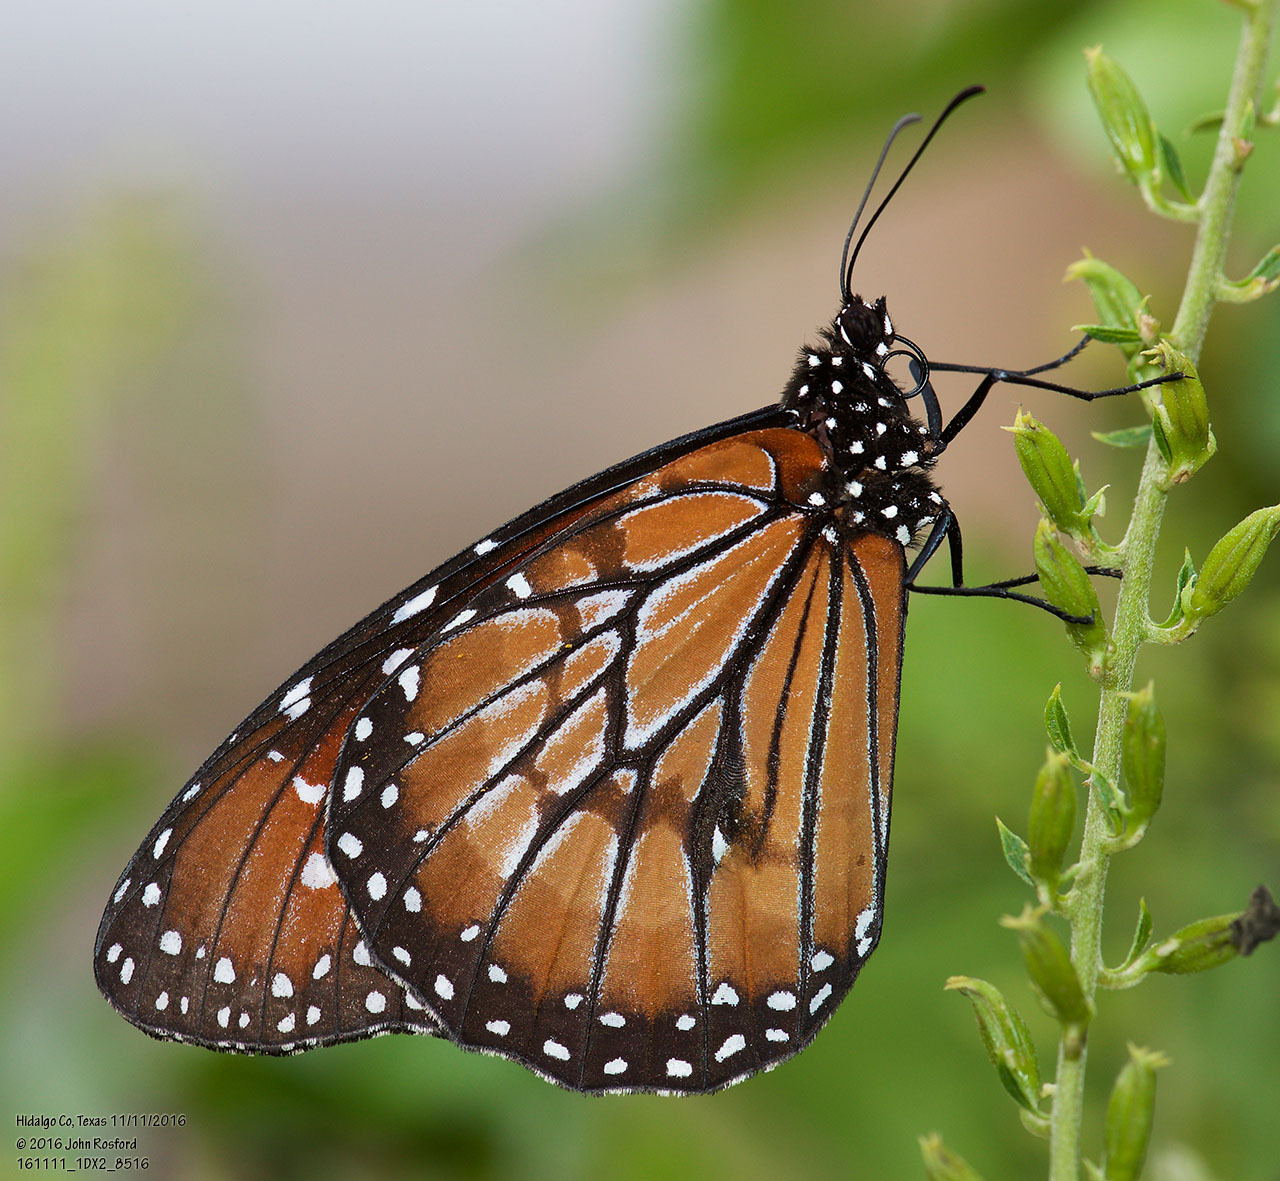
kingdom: Animalia
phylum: Arthropoda
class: Insecta
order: Lepidoptera
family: Nymphalidae
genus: Danaus
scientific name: Danaus eresimus
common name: Soldier
